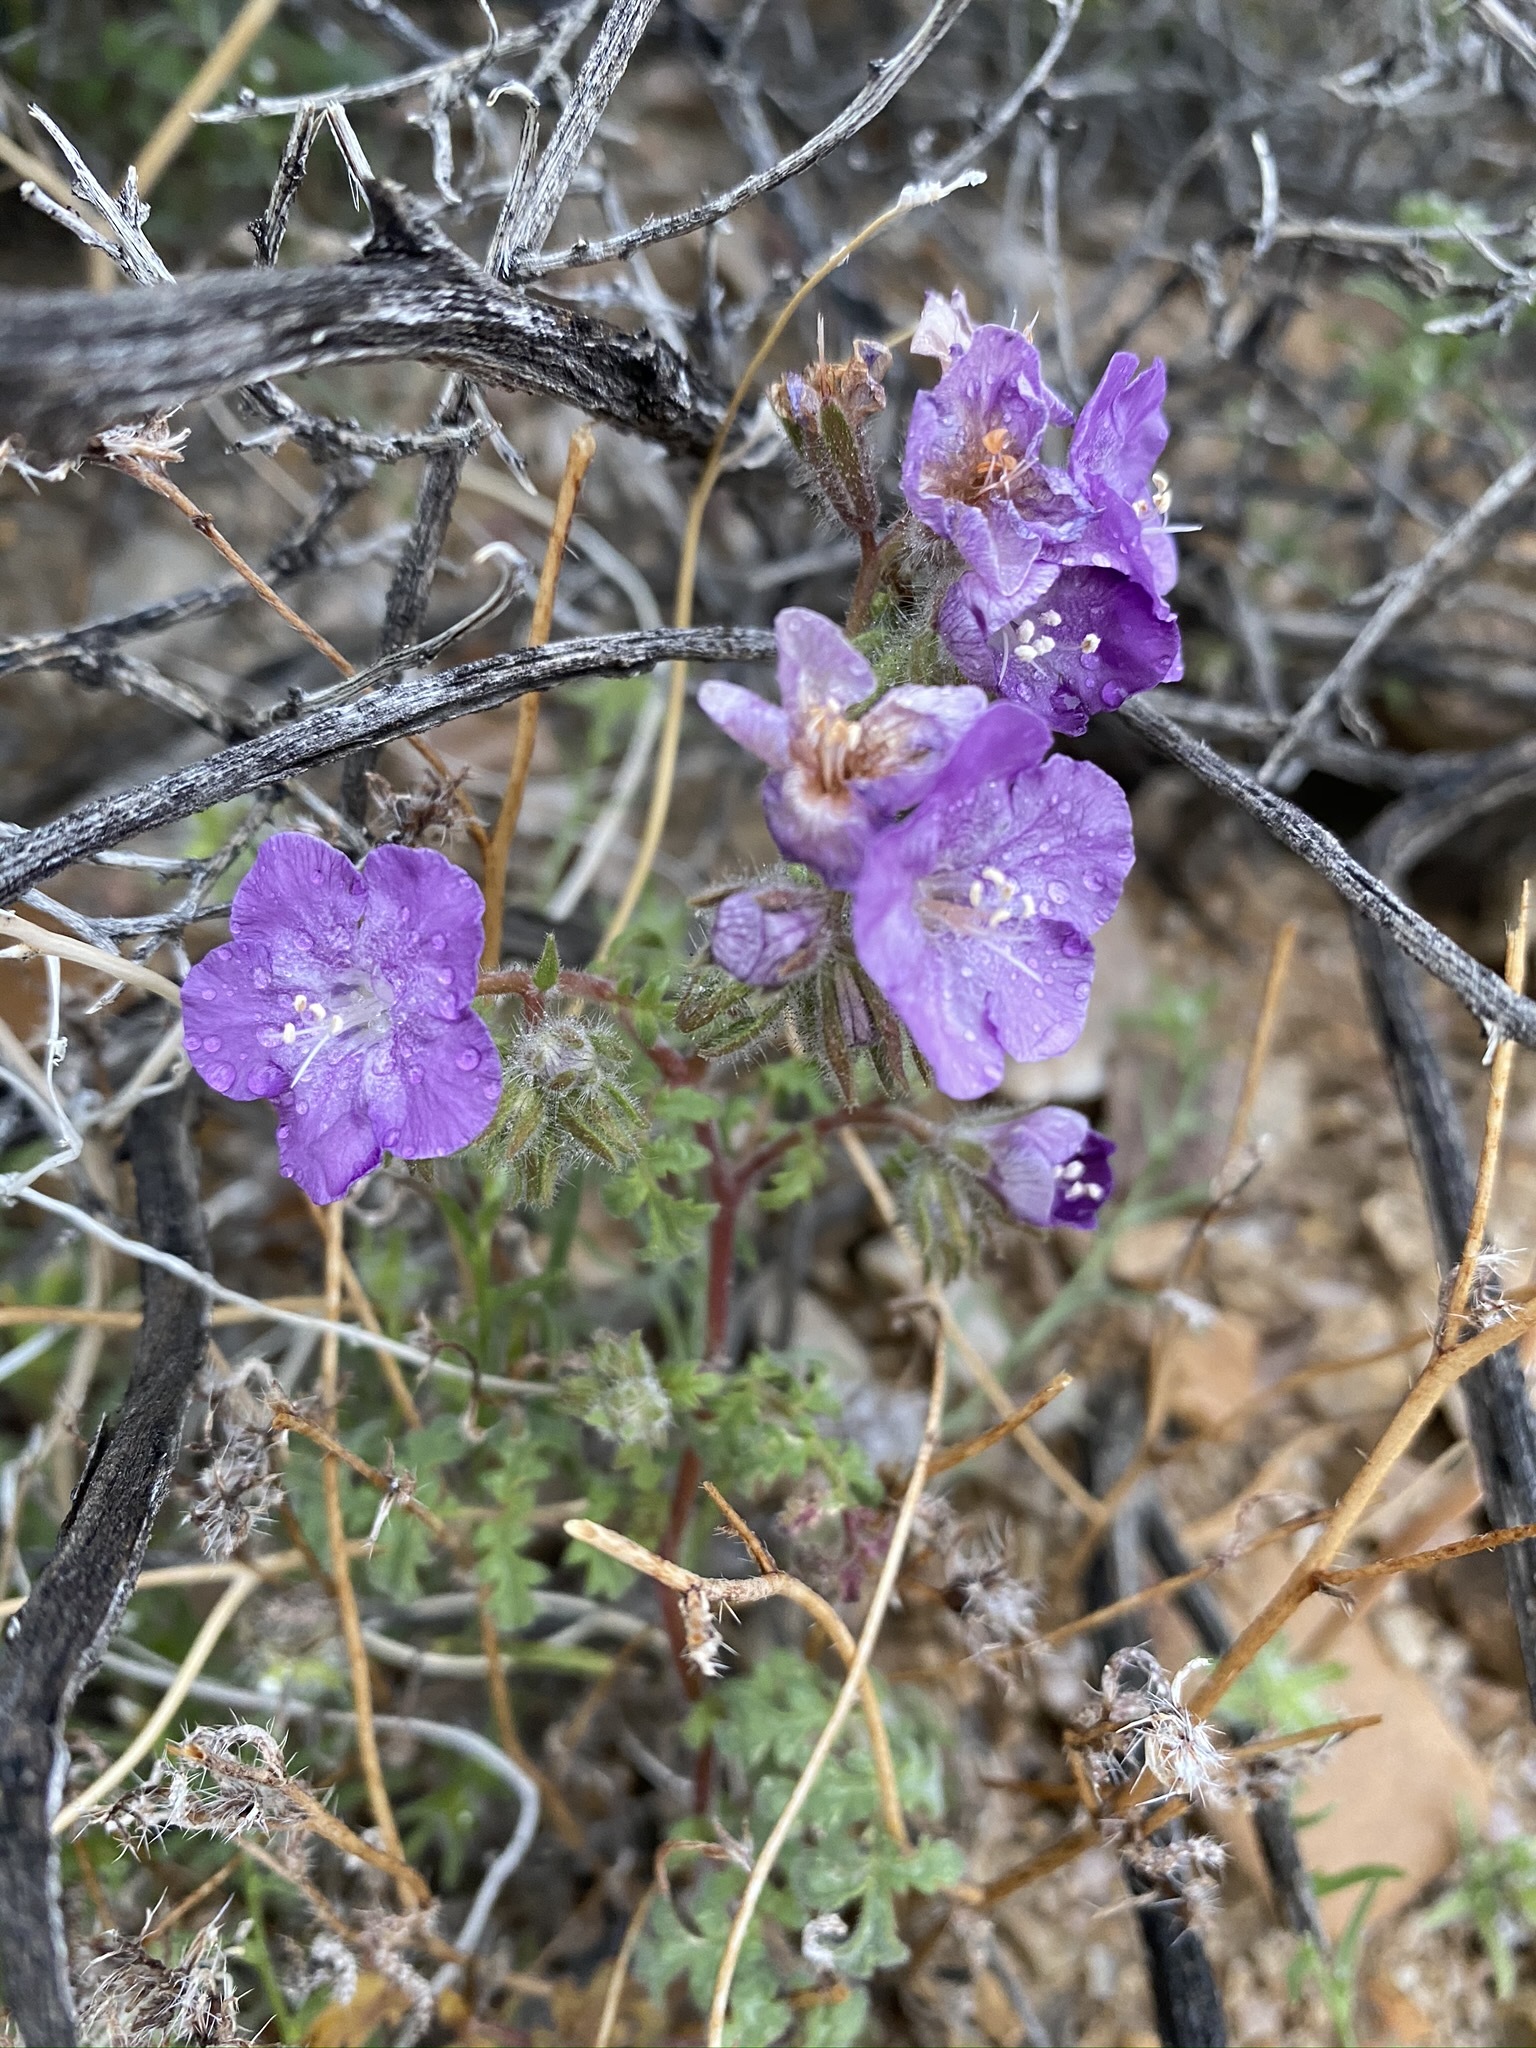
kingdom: Plantae
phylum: Tracheophyta
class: Magnoliopsida
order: Boraginales
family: Hydrophyllaceae
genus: Phacelia
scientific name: Phacelia vallis-mortae
